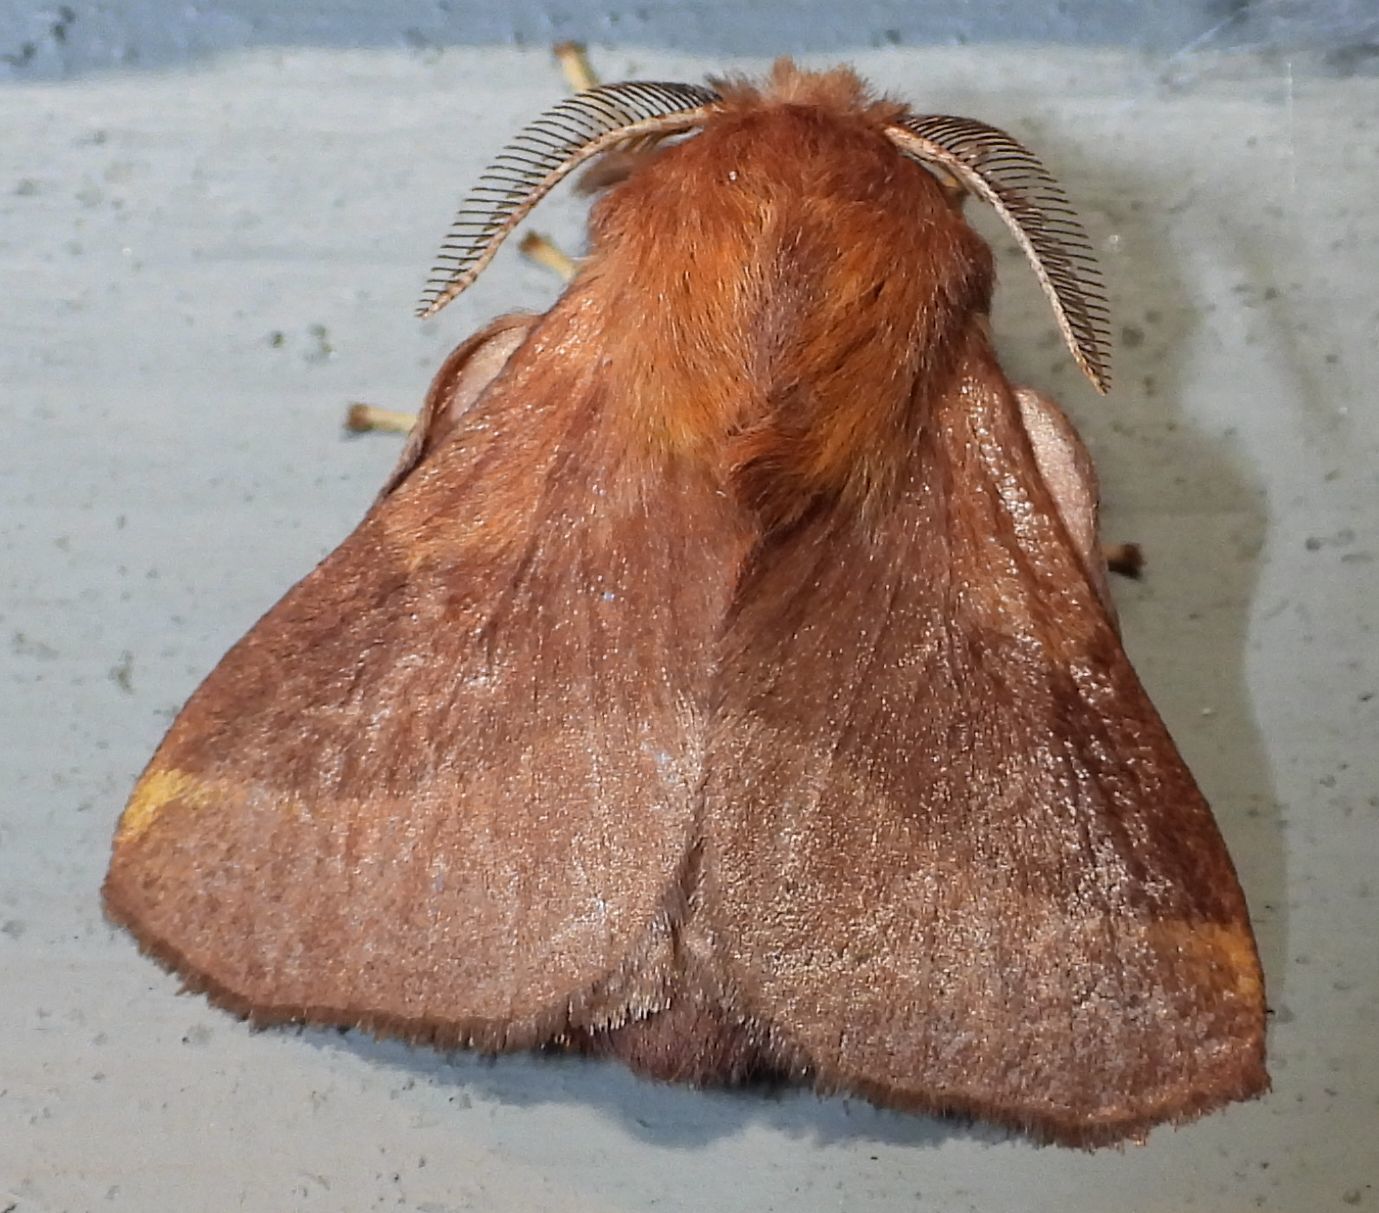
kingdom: Animalia
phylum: Arthropoda
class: Insecta
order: Lepidoptera
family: Lasiocampidae
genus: Malacosoma
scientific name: Malacosoma disstria
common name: Forest tent caterpillar
